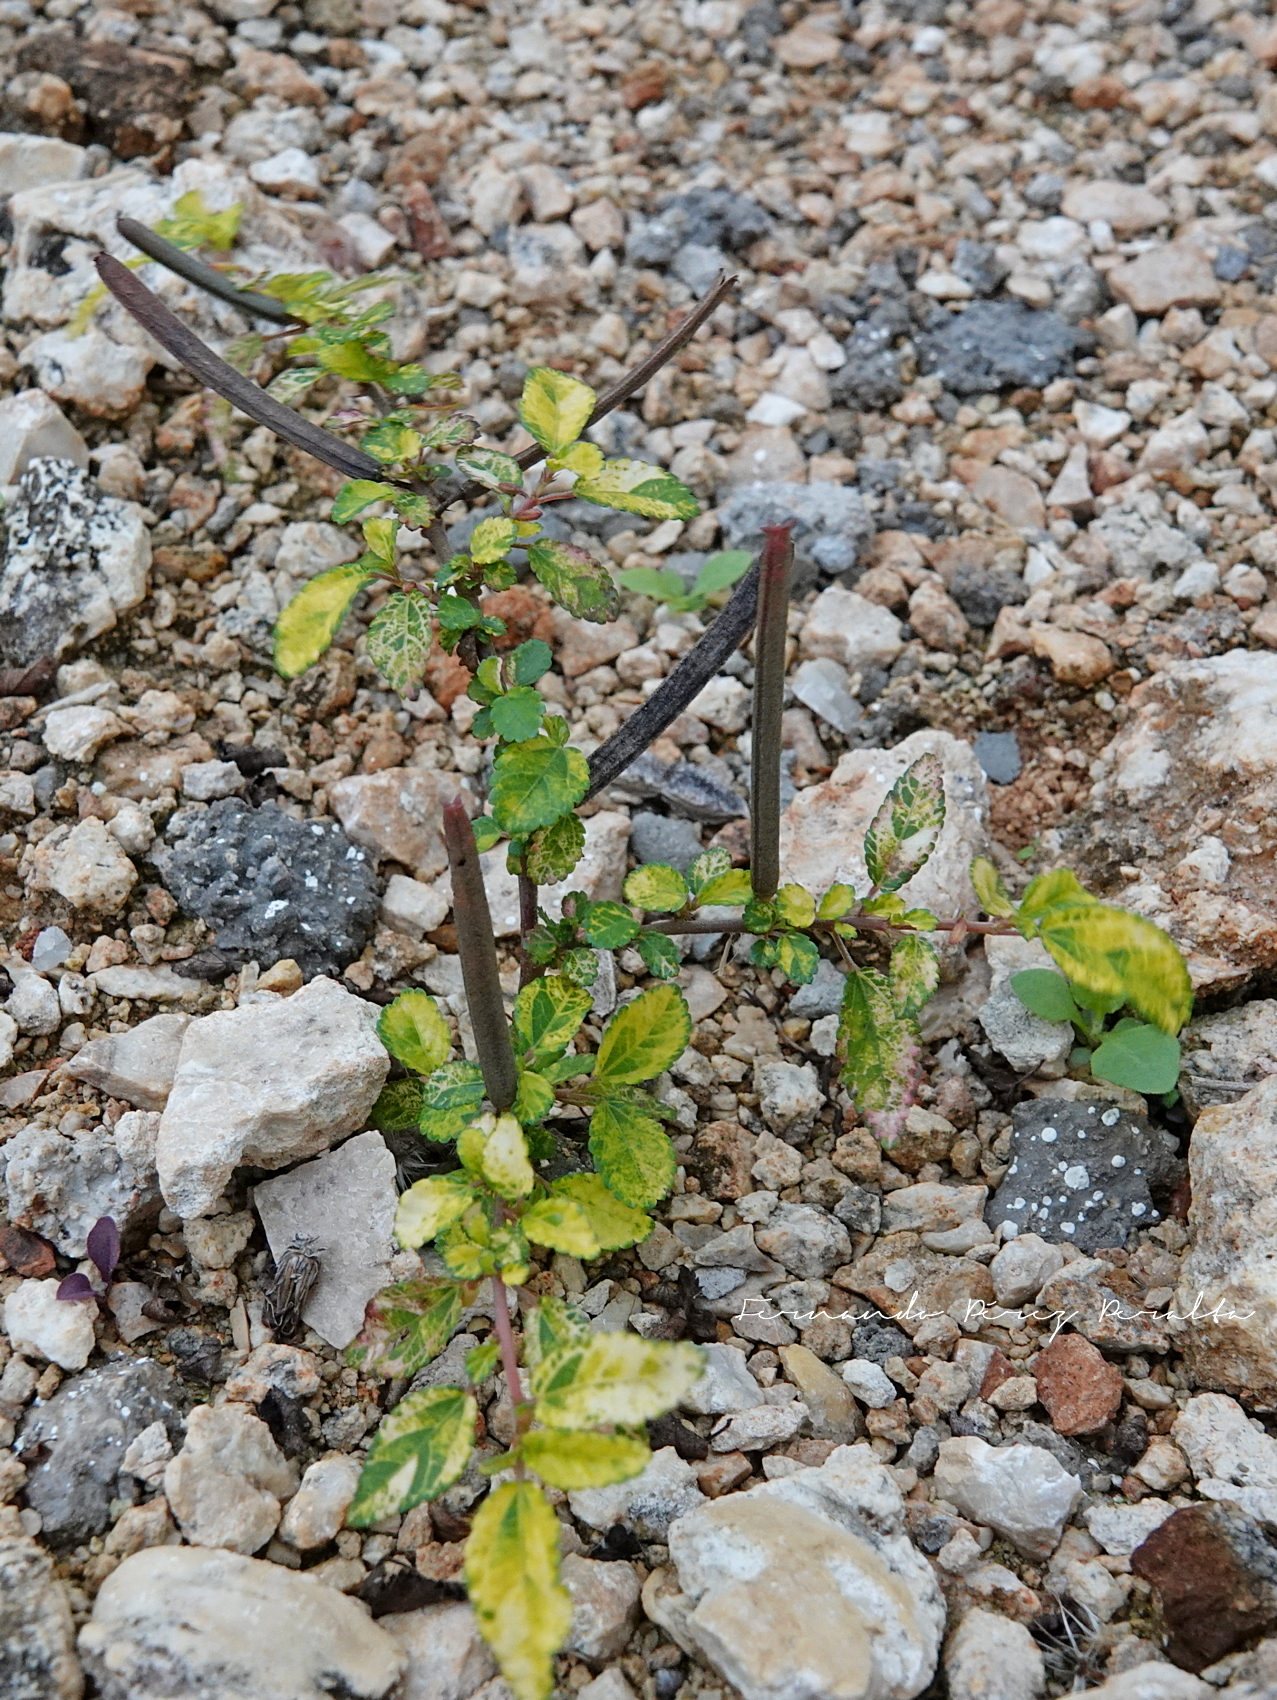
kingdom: Plantae
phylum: Tracheophyta
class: Magnoliopsida
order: Malvales
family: Malvaceae
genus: Corchorus
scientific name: Corchorus siliquosus
